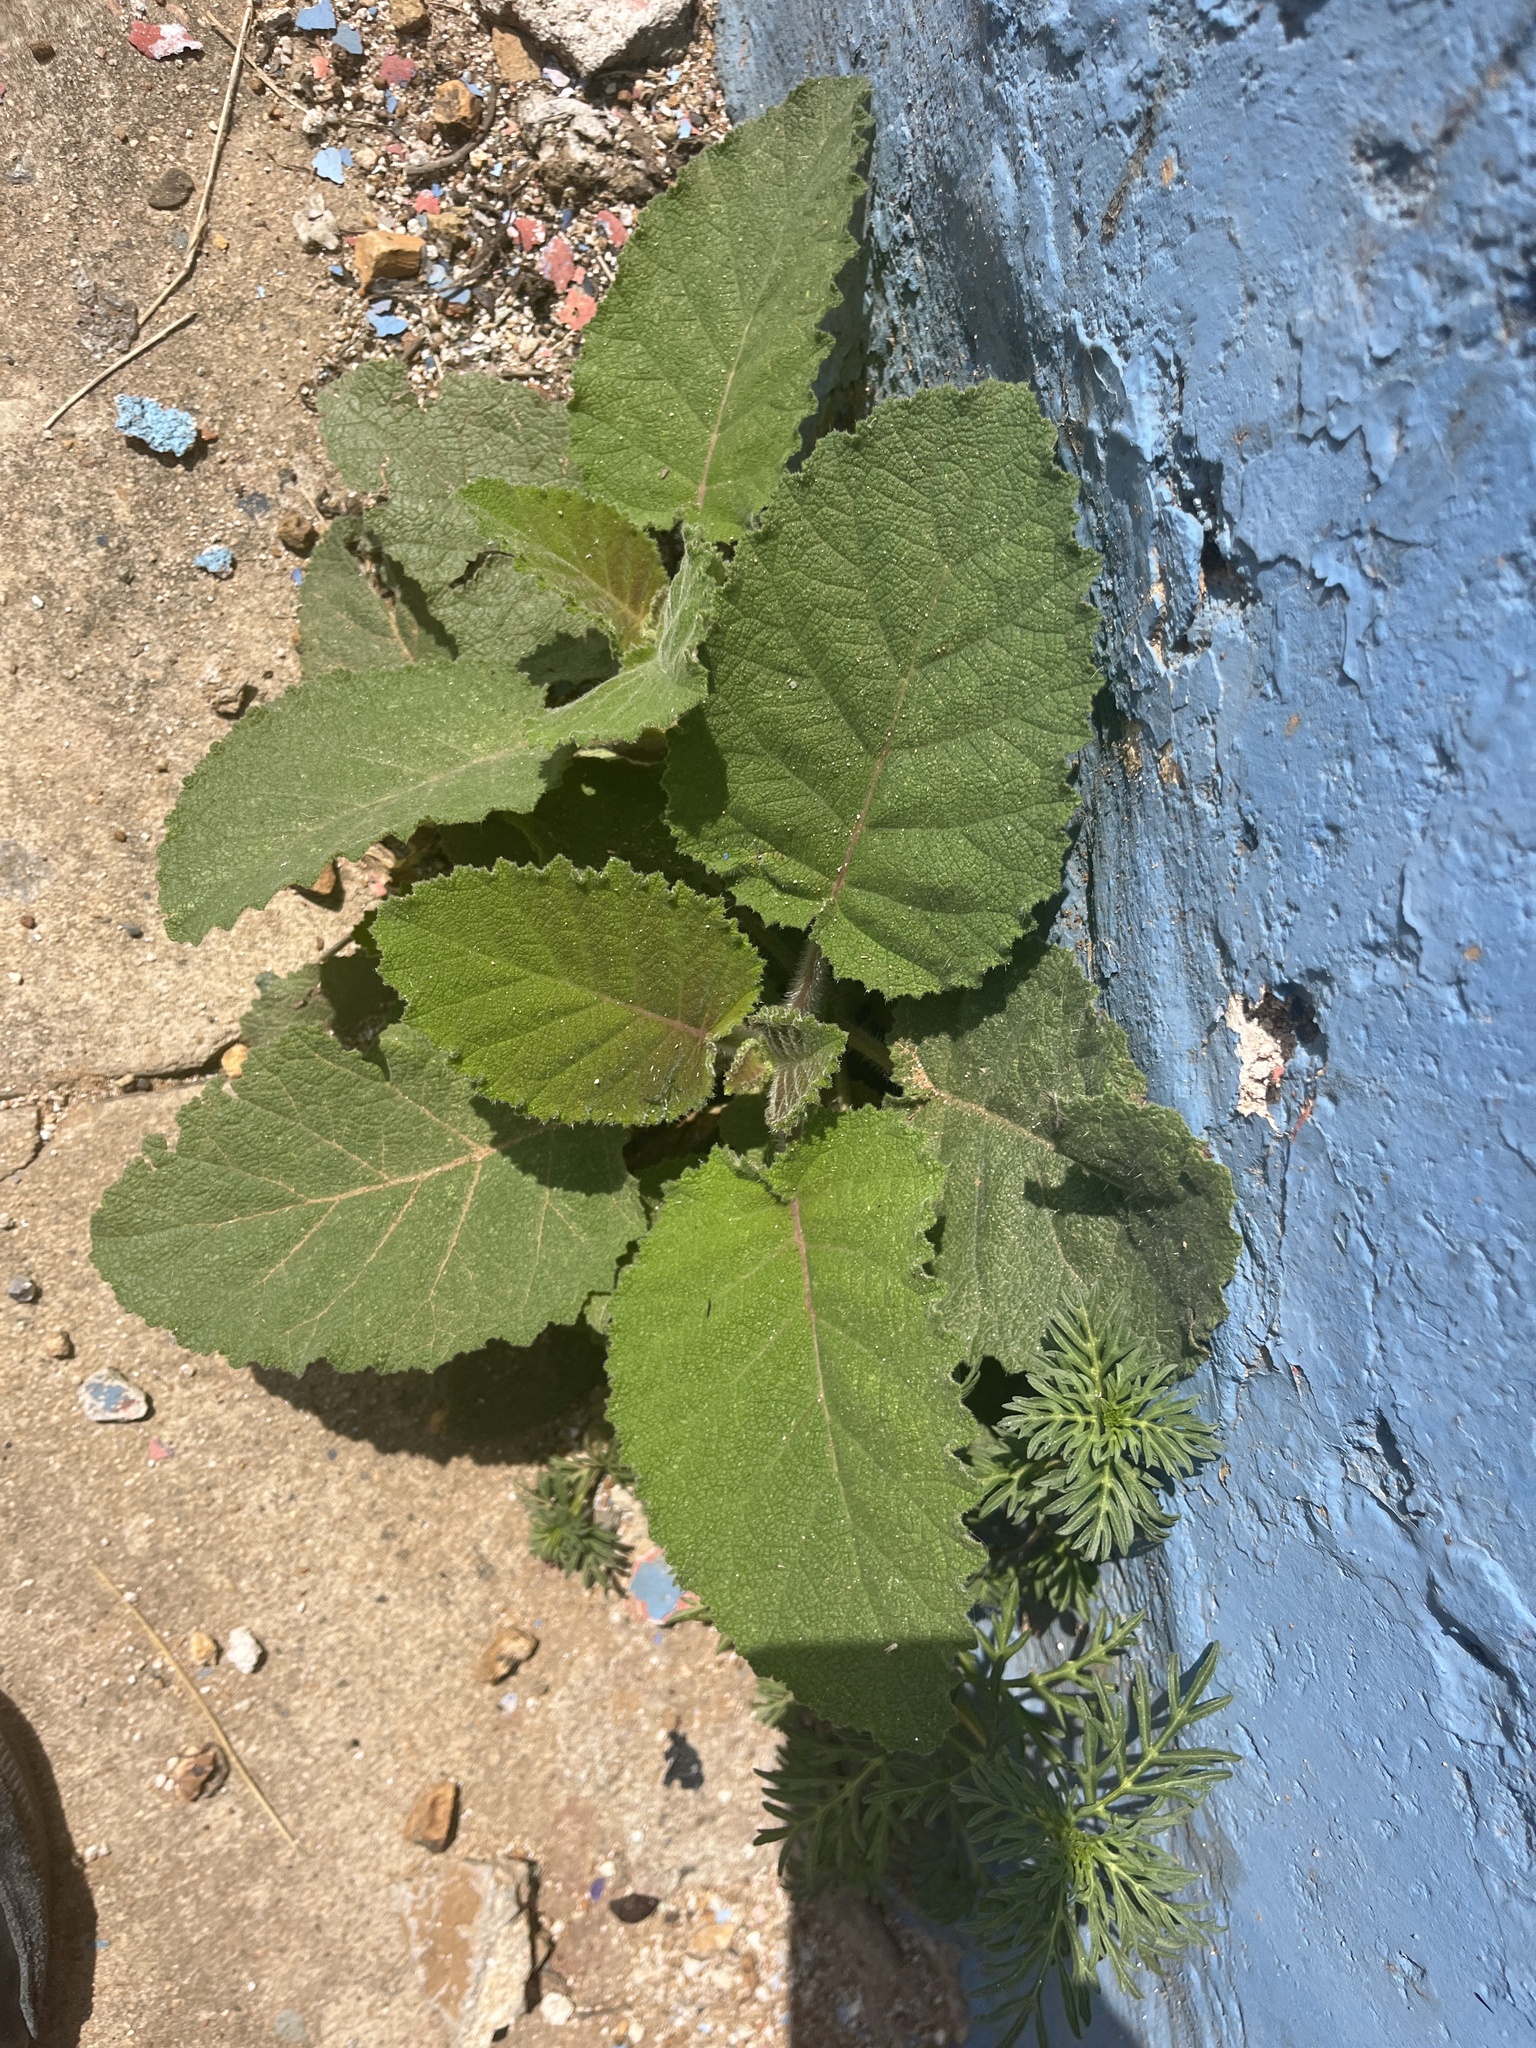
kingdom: Plantae
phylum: Tracheophyta
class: Magnoliopsida
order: Boraginales
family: Namaceae
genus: Wigandia
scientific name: Wigandia urens
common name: Caracus wigandia
